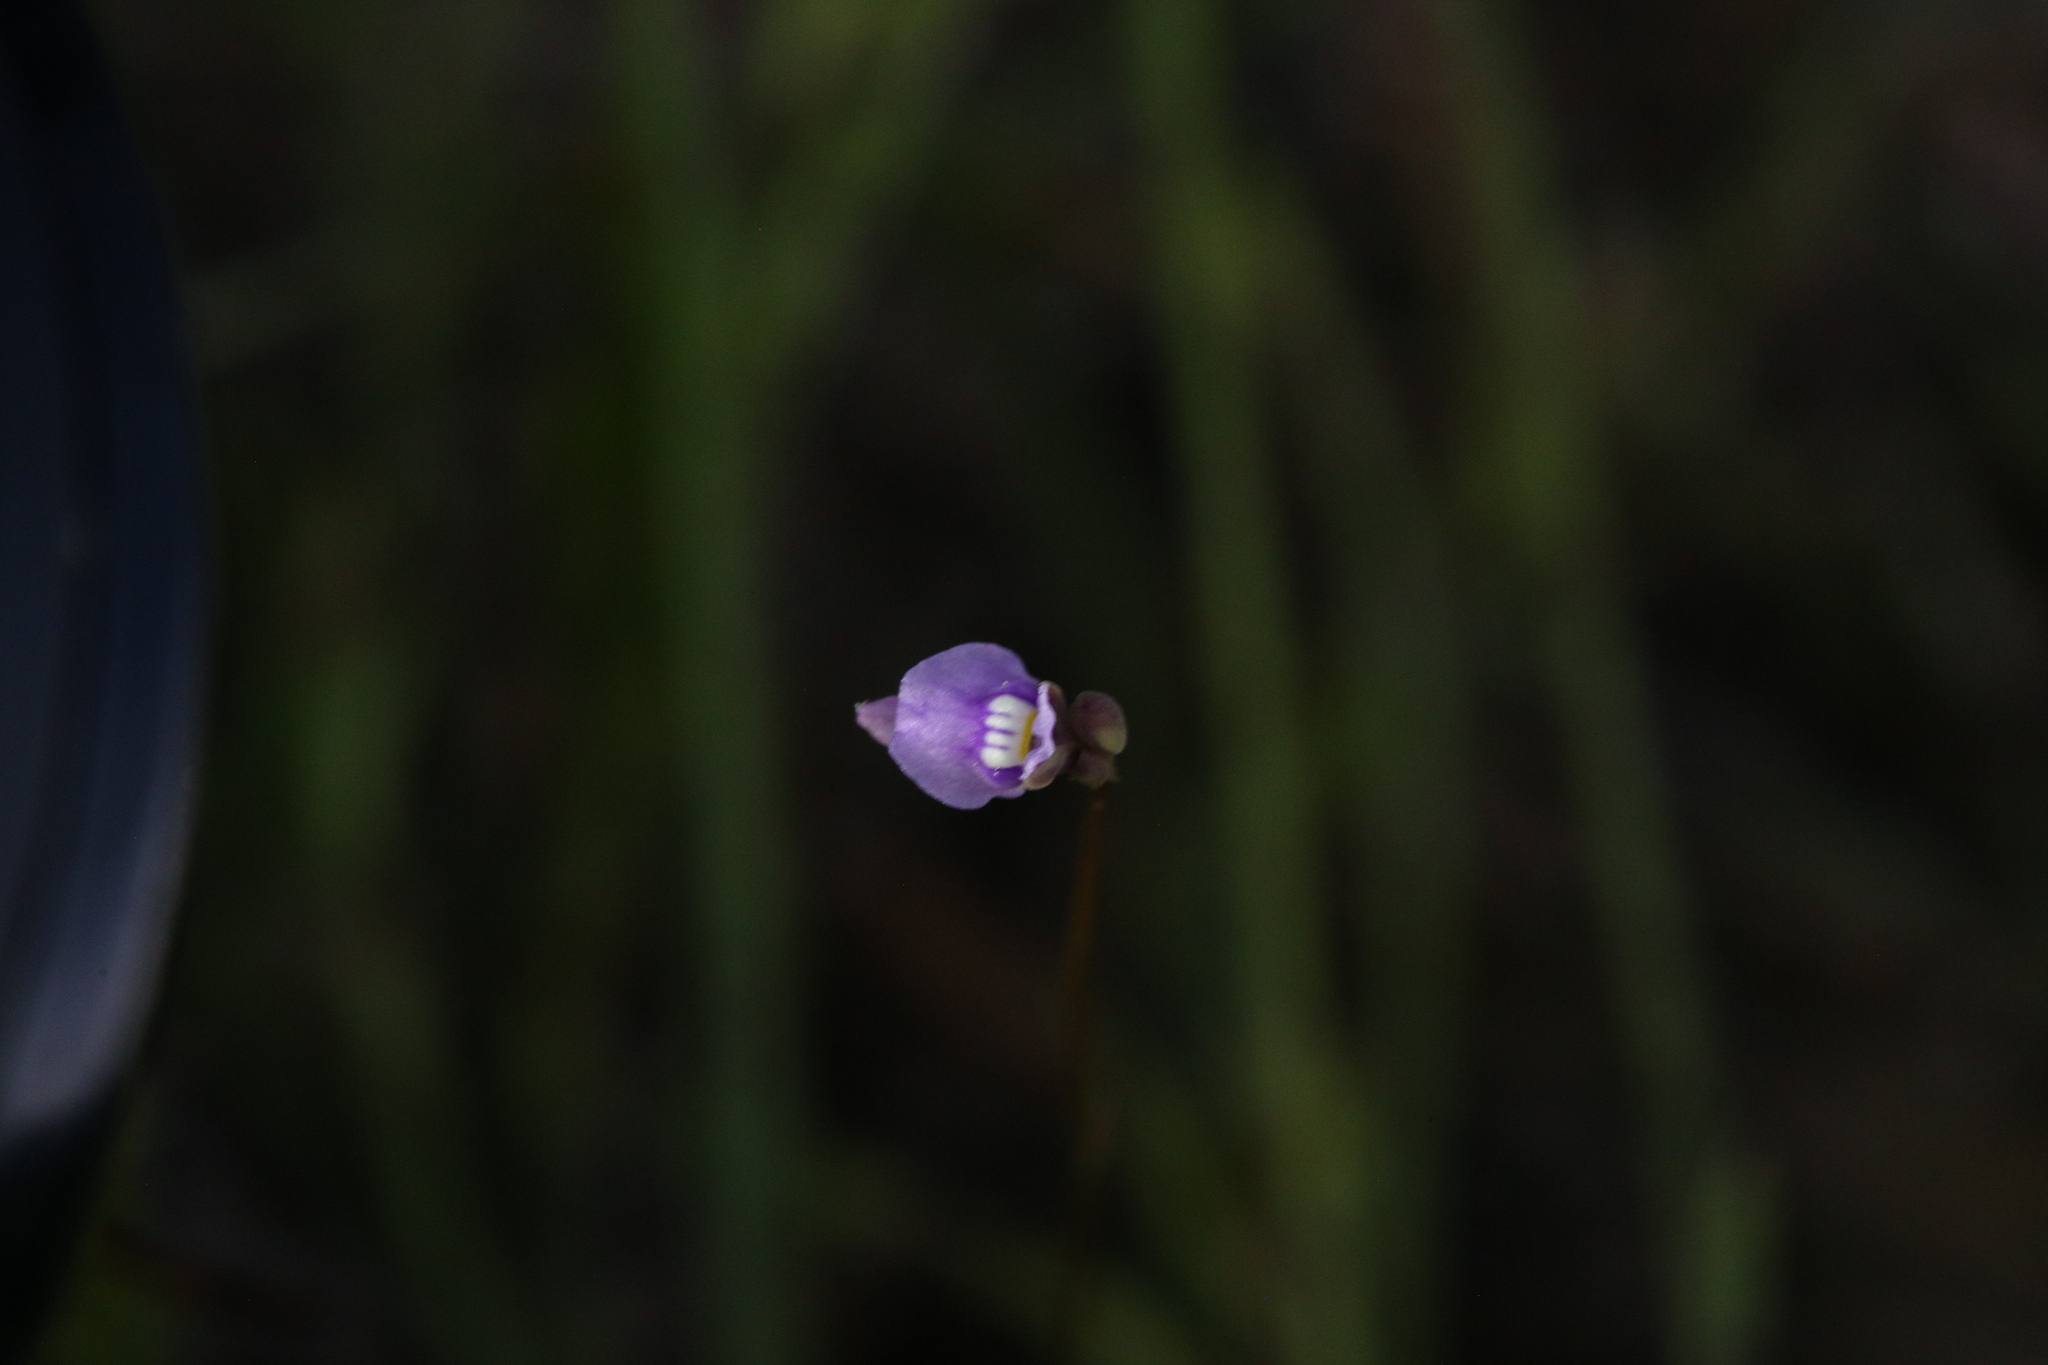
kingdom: Plantae
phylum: Tracheophyta
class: Magnoliopsida
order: Lamiales
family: Lentibulariaceae
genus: Utricularia
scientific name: Utricularia caerulea
